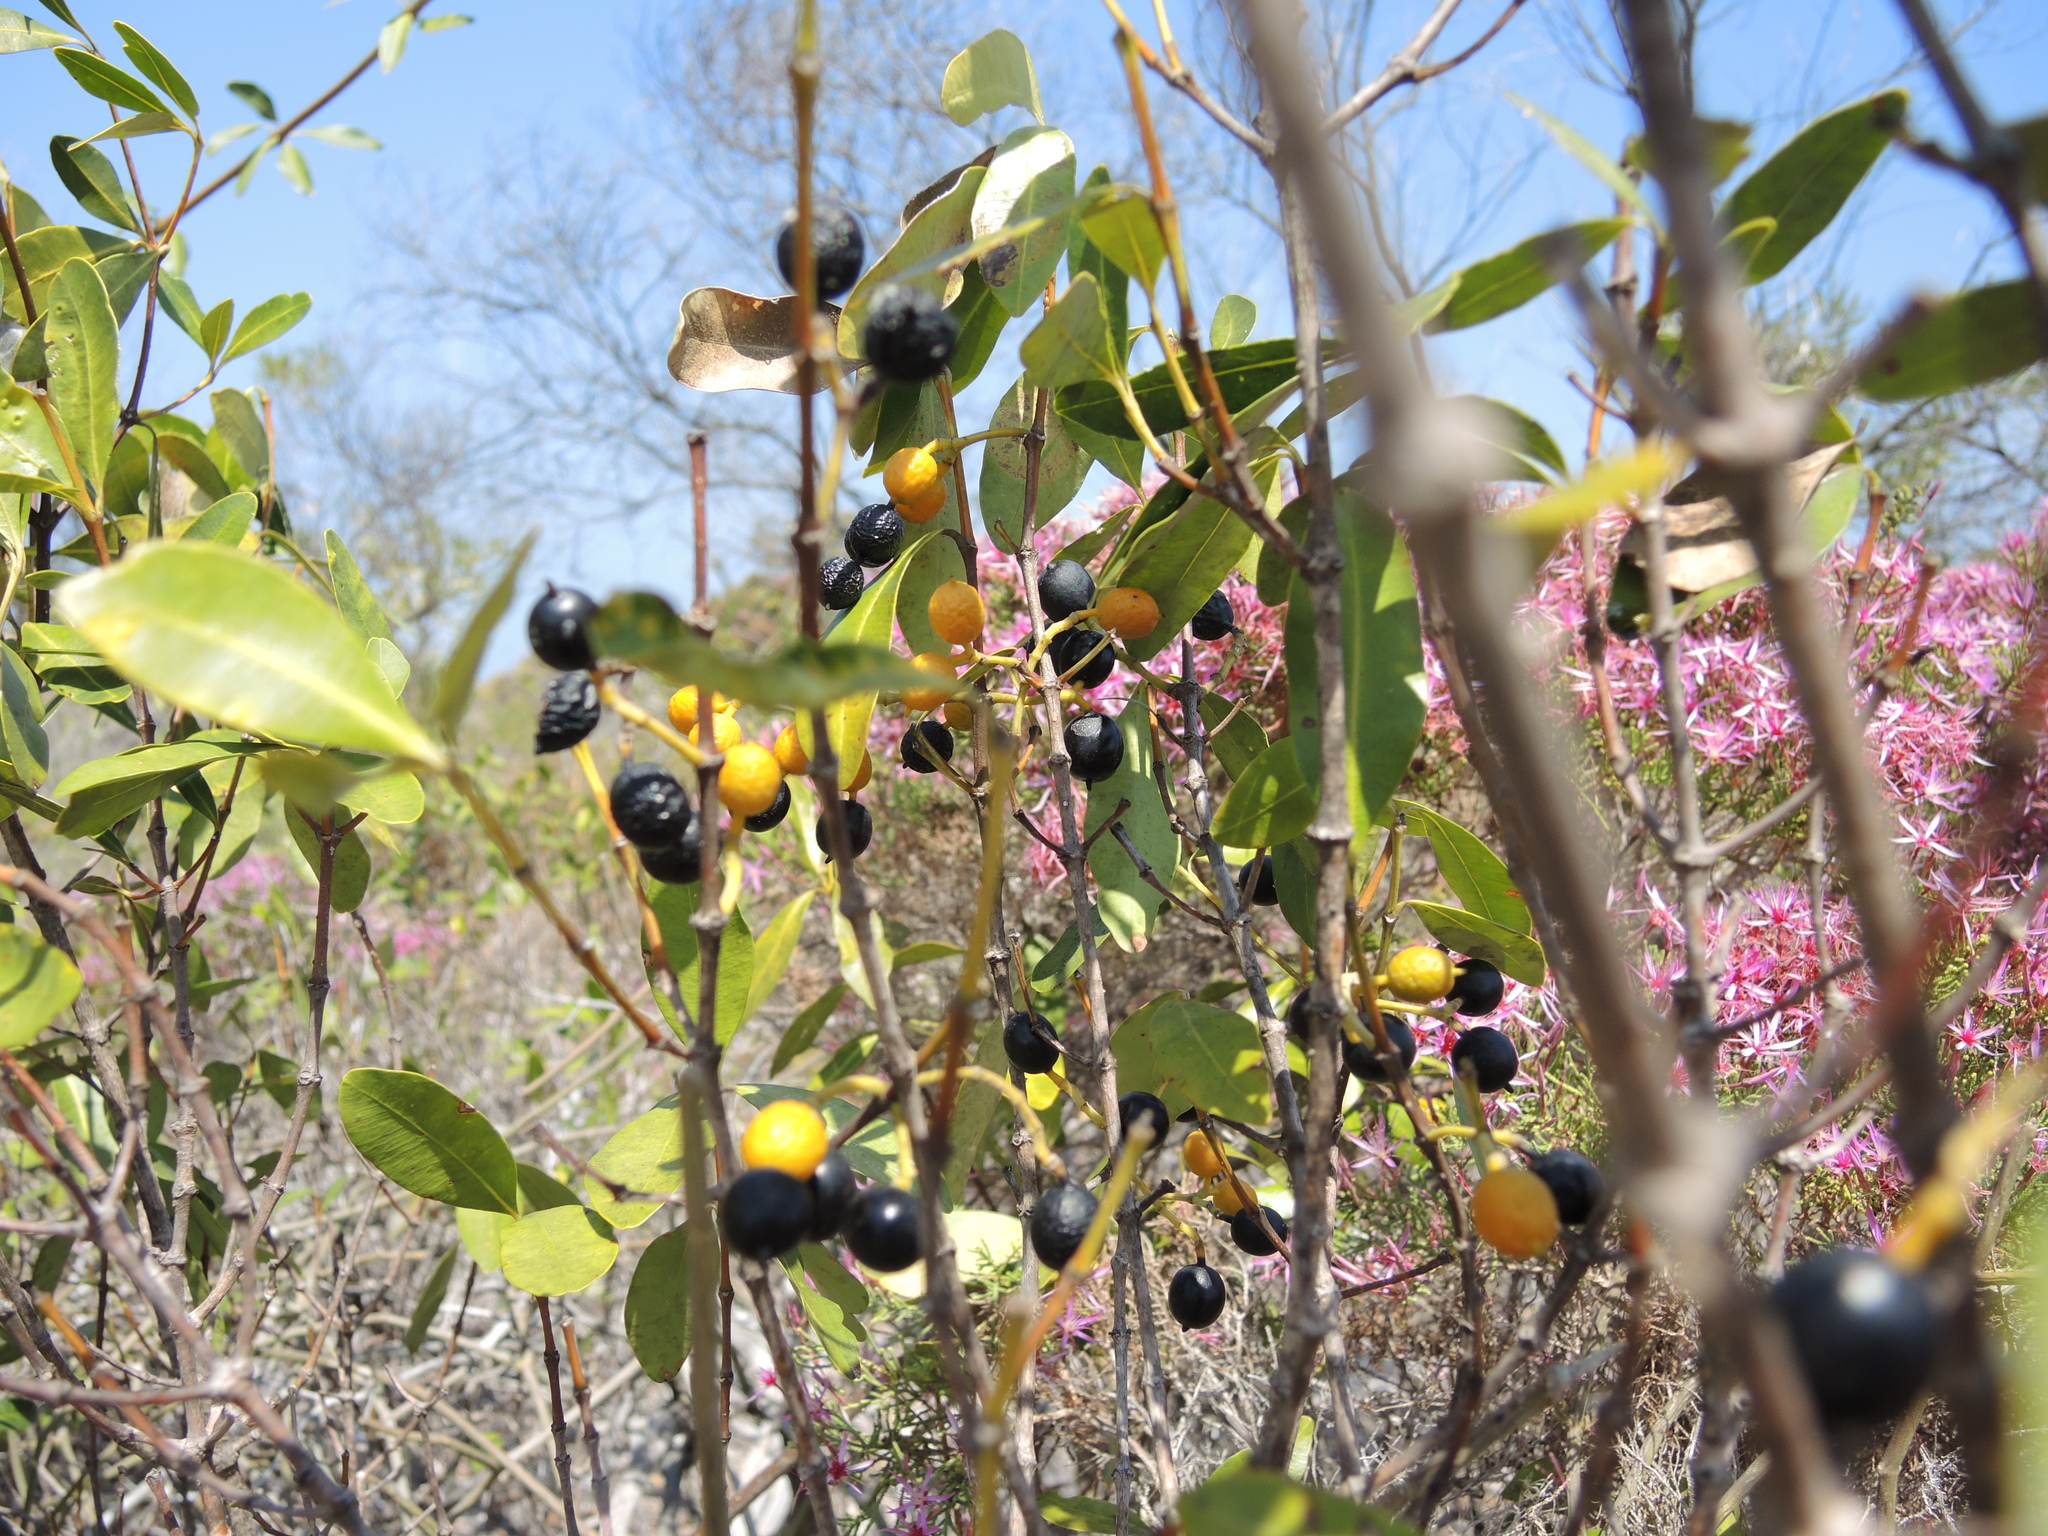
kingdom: Plantae
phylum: Tracheophyta
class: Magnoliopsida
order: Gentianales
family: Apocynaceae
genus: Alyxia
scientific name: Alyxia spicata
